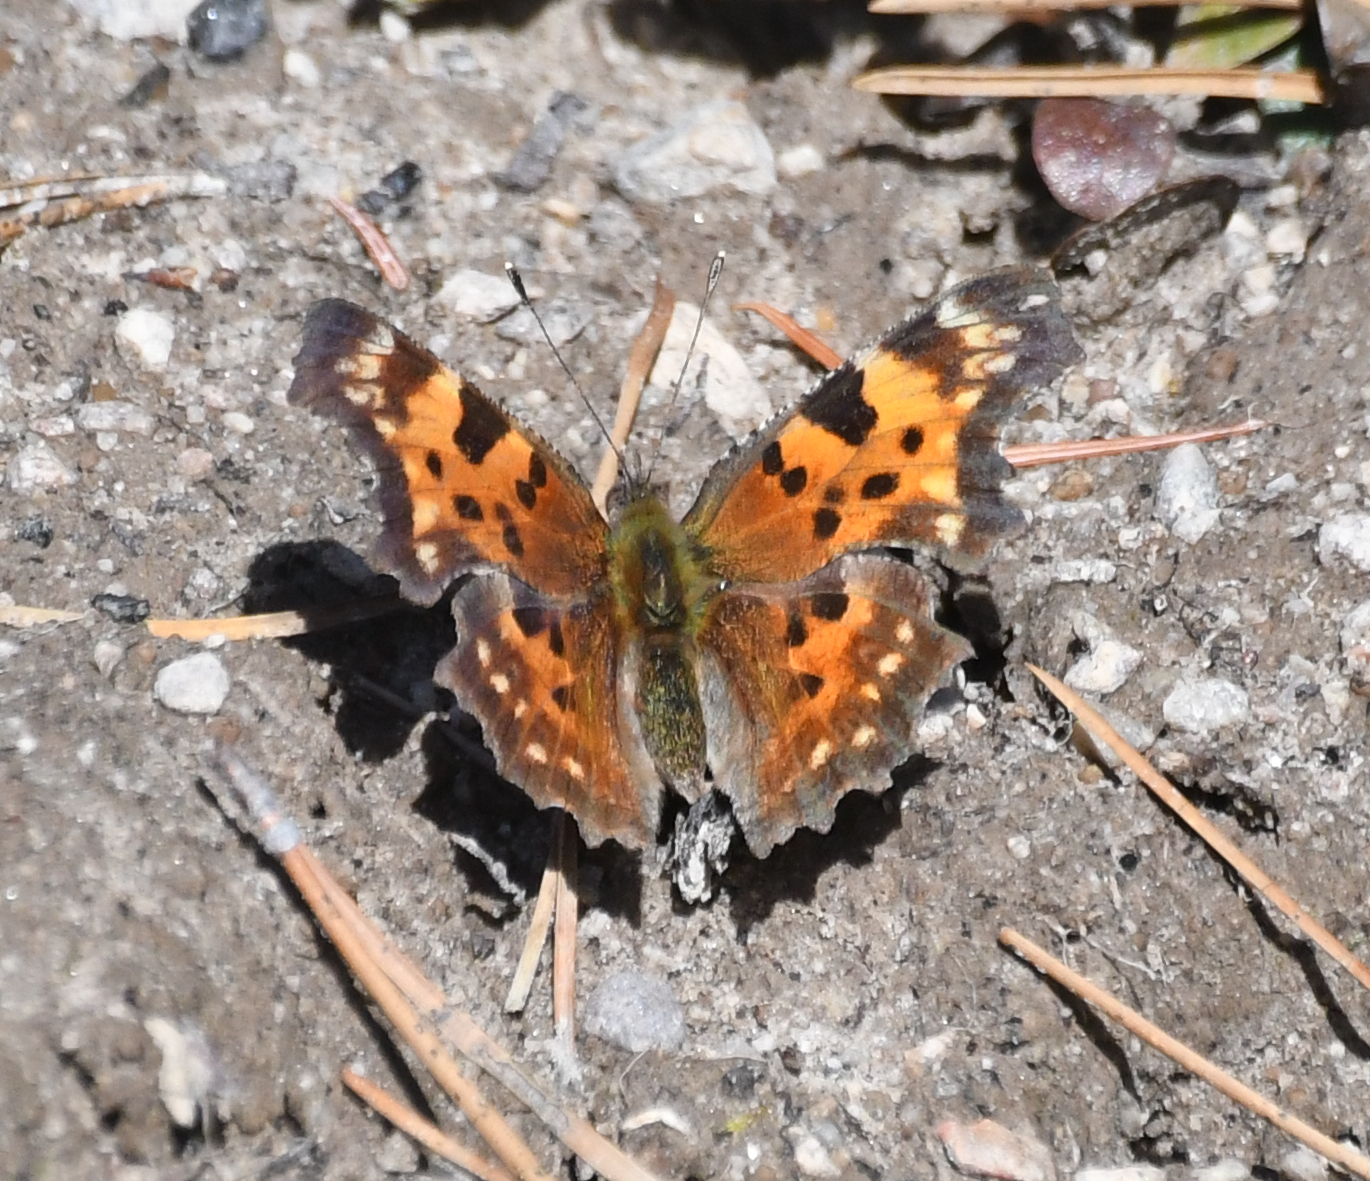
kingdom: Animalia
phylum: Arthropoda
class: Insecta
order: Lepidoptera
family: Nymphalidae
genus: Polygonia
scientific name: Polygonia faunus
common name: Green comma
